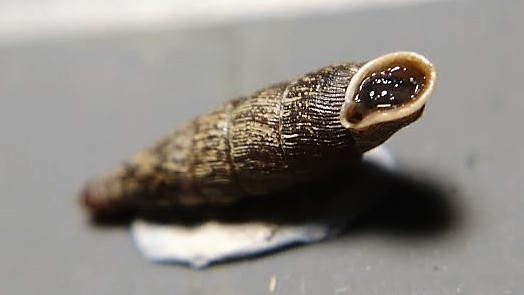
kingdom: Animalia
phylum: Mollusca
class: Gastropoda
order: Stylommatophora
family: Clausiliidae
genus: Clausilia
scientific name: Clausilia bidentata
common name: Two-toothed door snail
